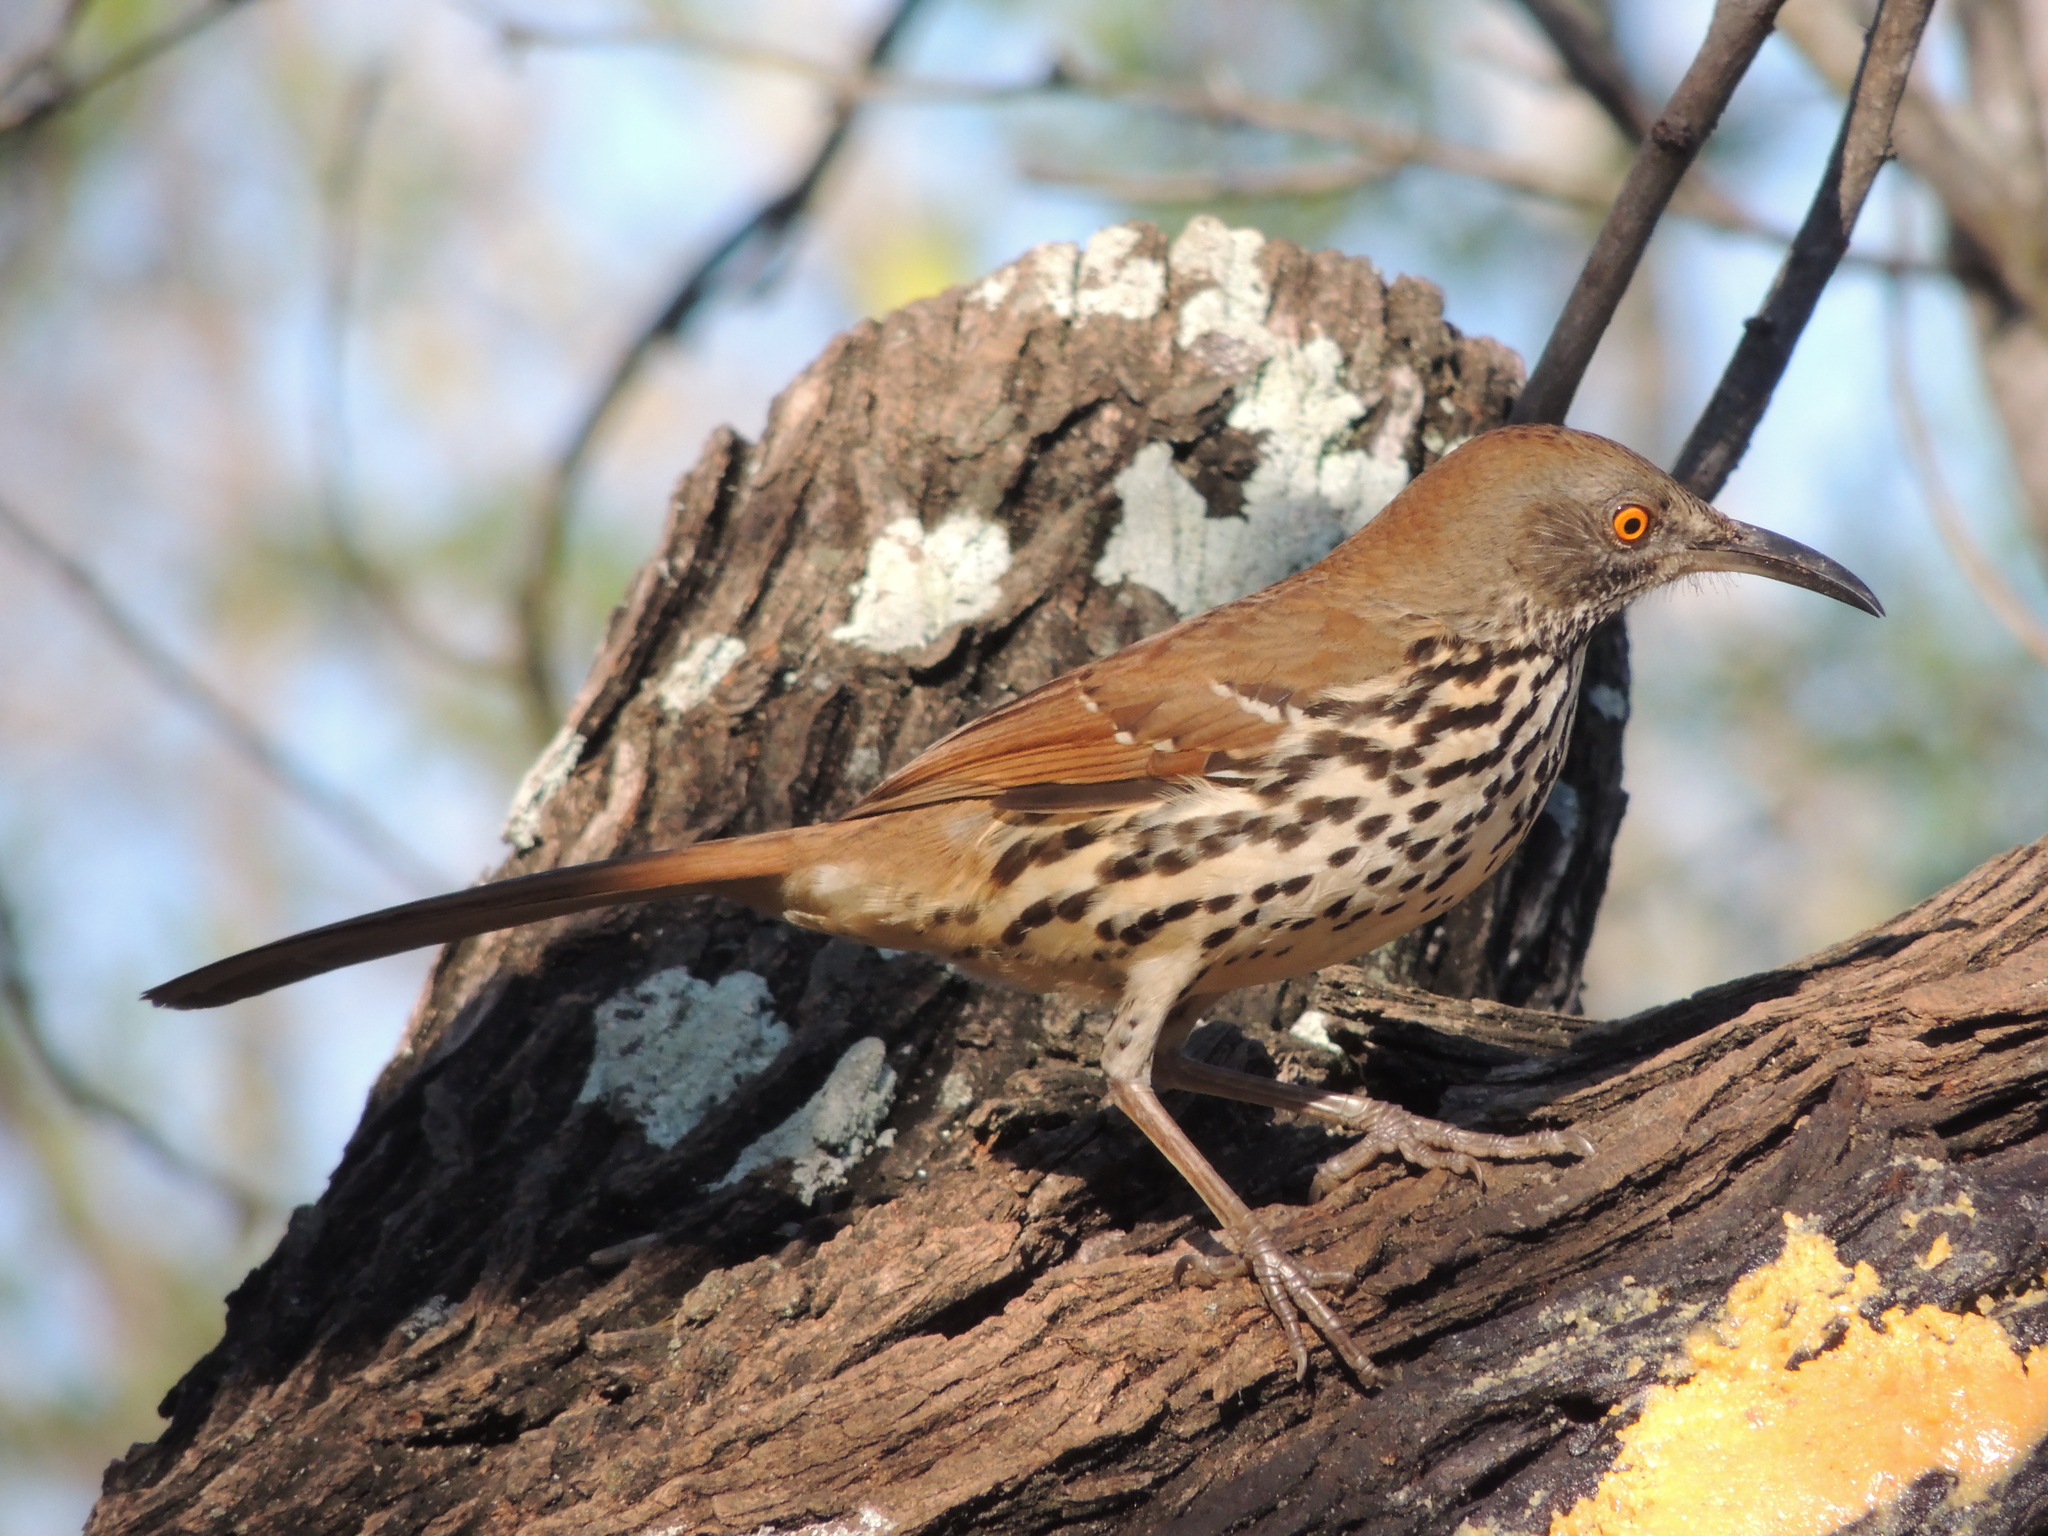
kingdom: Animalia
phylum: Chordata
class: Aves
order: Passeriformes
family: Mimidae
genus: Toxostoma
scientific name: Toxostoma longirostre
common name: Long-billed thrasher
